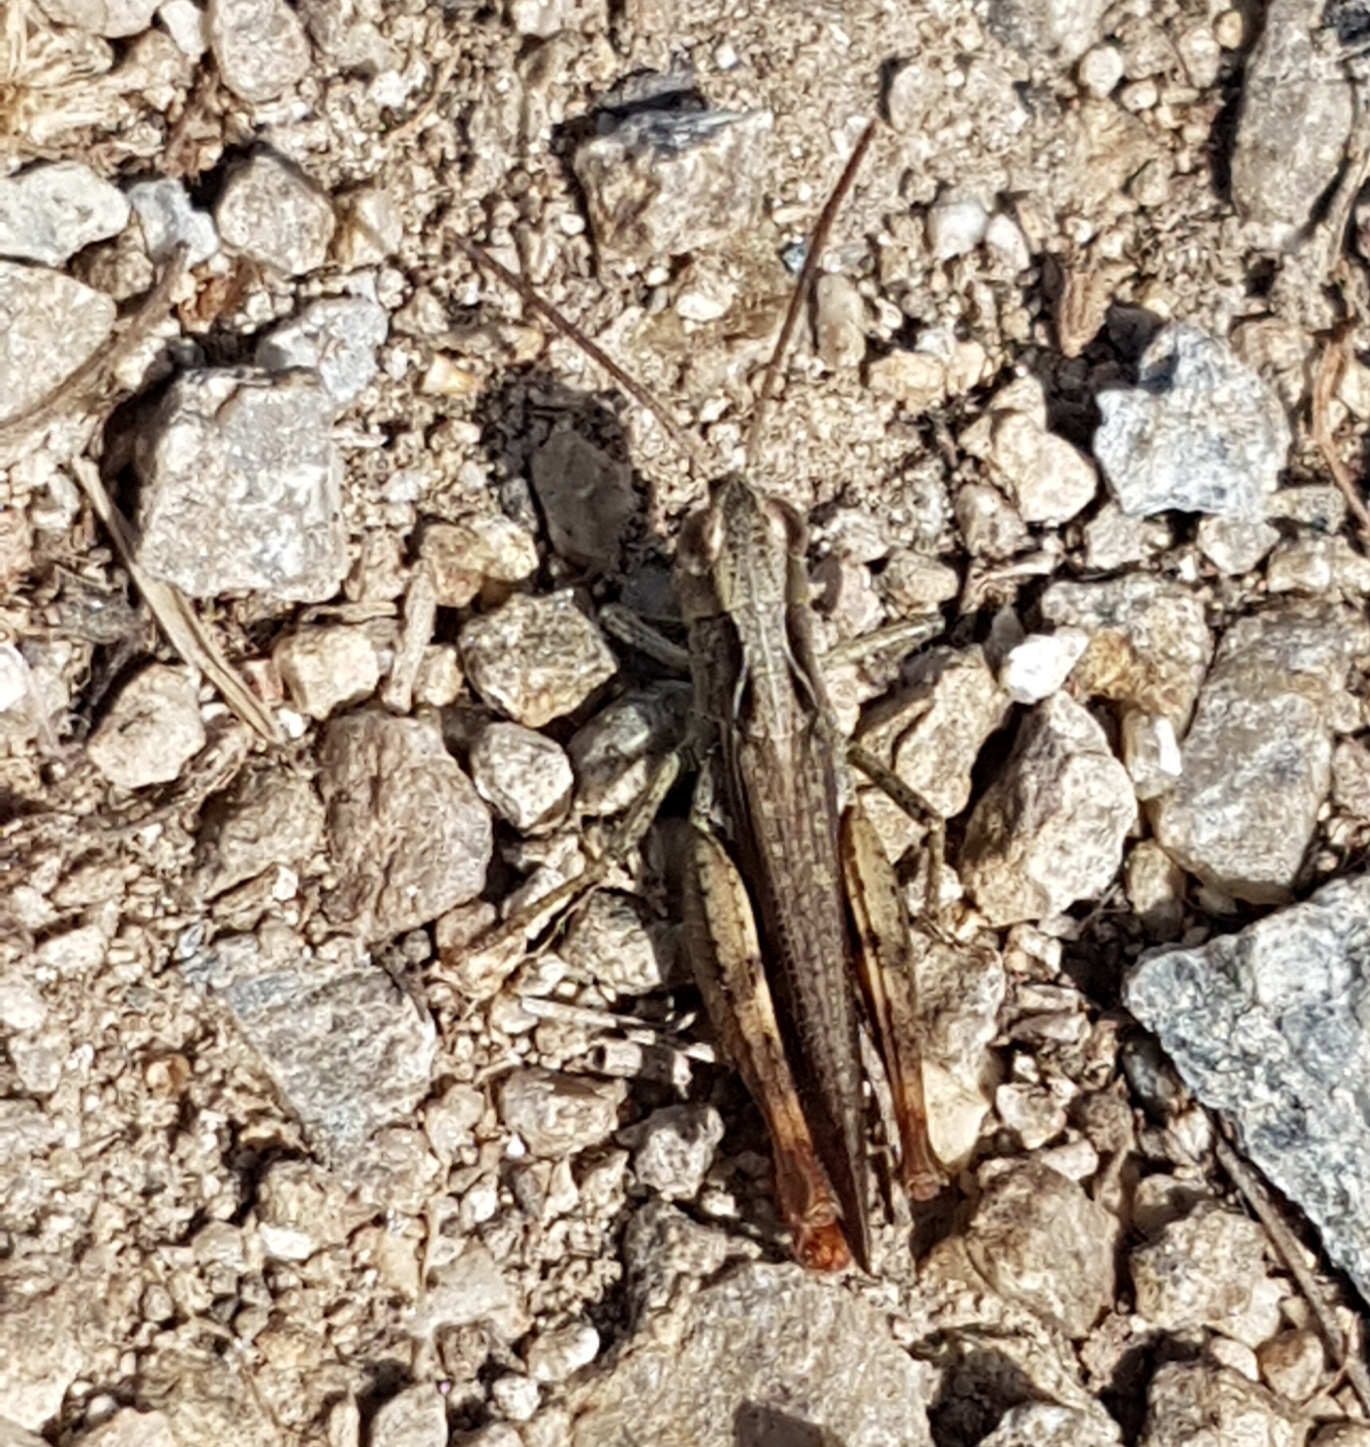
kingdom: Animalia
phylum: Arthropoda
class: Insecta
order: Orthoptera
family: Acrididae
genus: Chorthippus
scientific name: Chorthippus vagans
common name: Heath grasshopper
